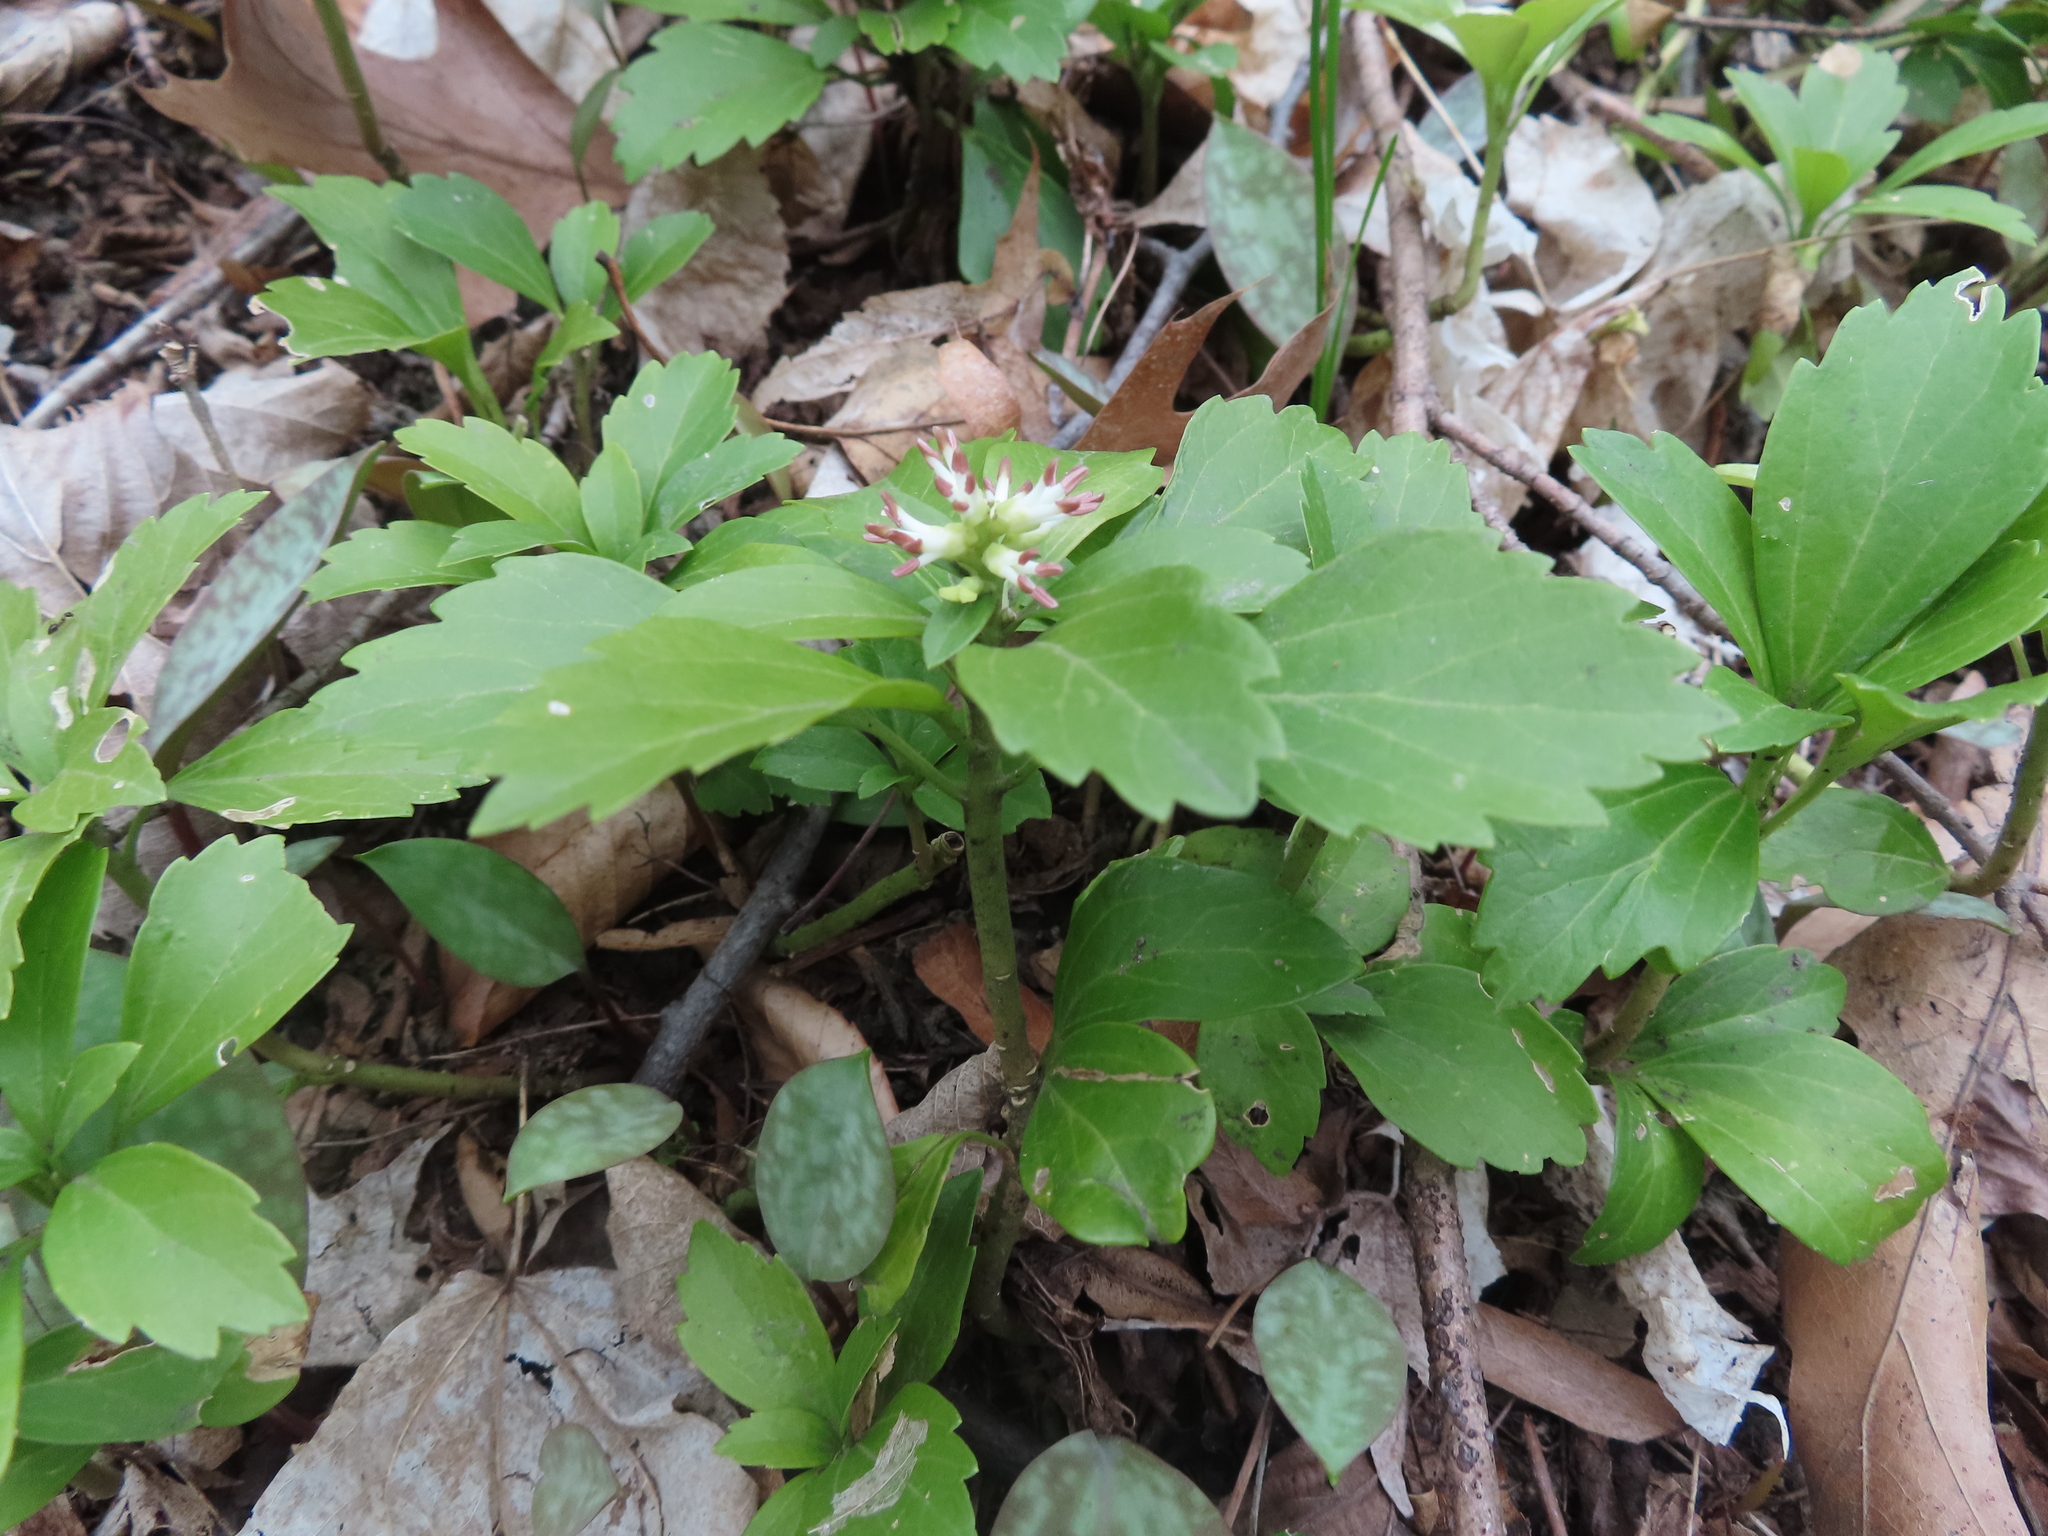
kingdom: Plantae
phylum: Tracheophyta
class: Magnoliopsida
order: Buxales
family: Buxaceae
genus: Pachysandra
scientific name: Pachysandra terminalis
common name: Japanese pachysandra
